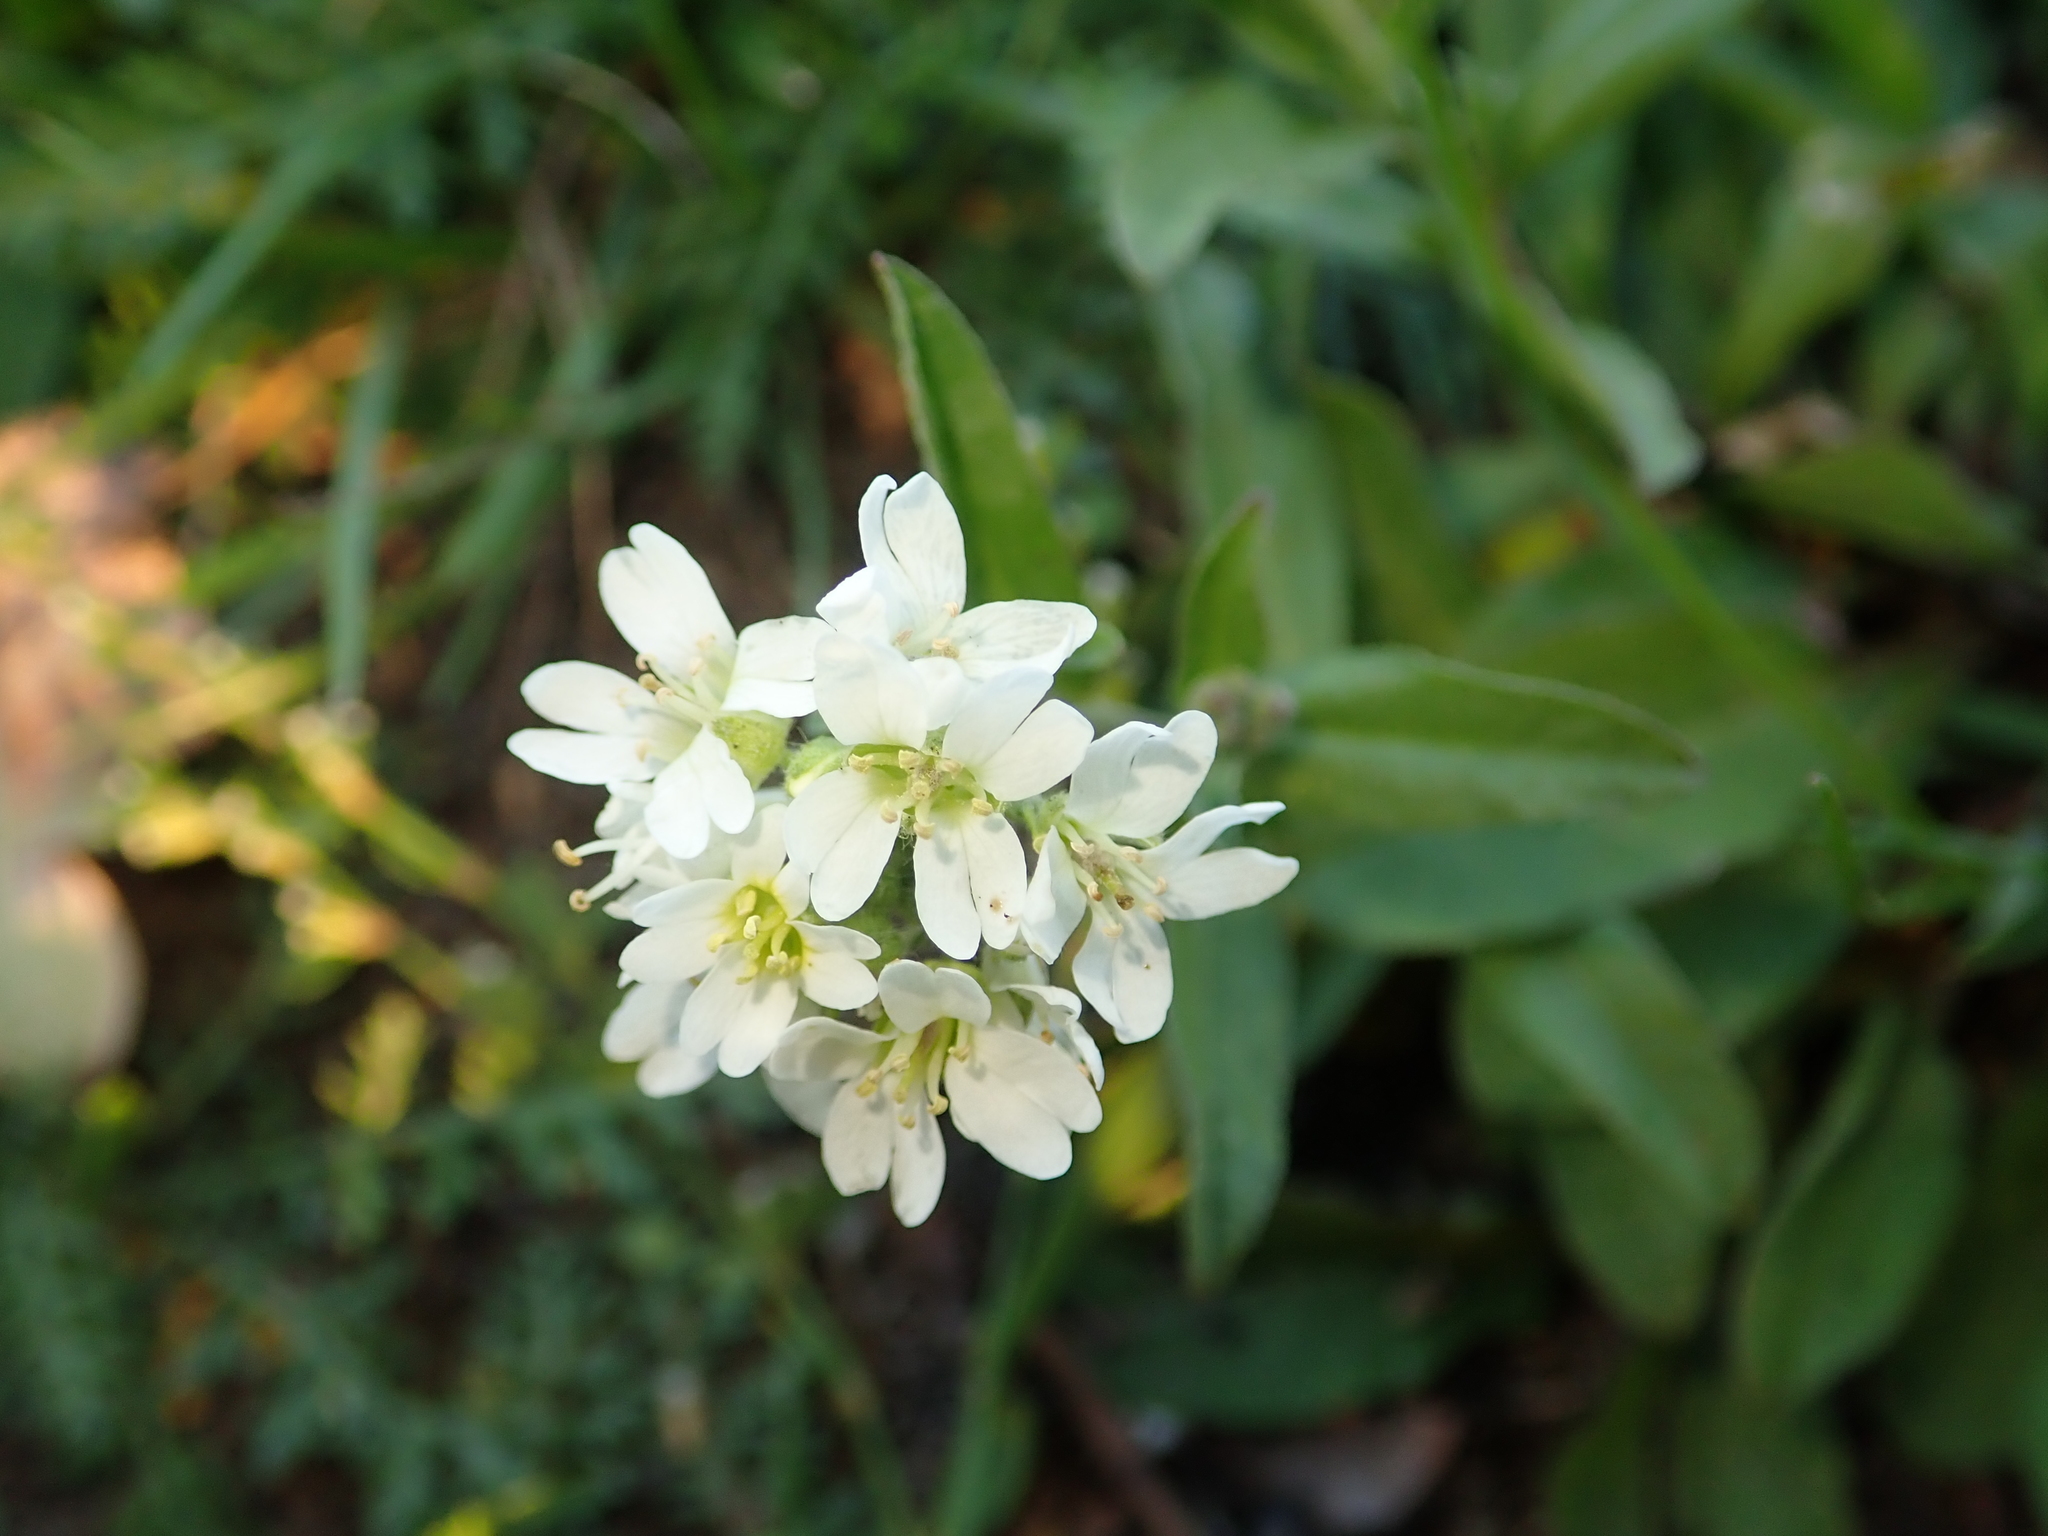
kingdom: Plantae
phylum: Tracheophyta
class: Magnoliopsida
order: Brassicales
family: Brassicaceae
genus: Berteroa
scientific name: Berteroa incana
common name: Hoary alison
